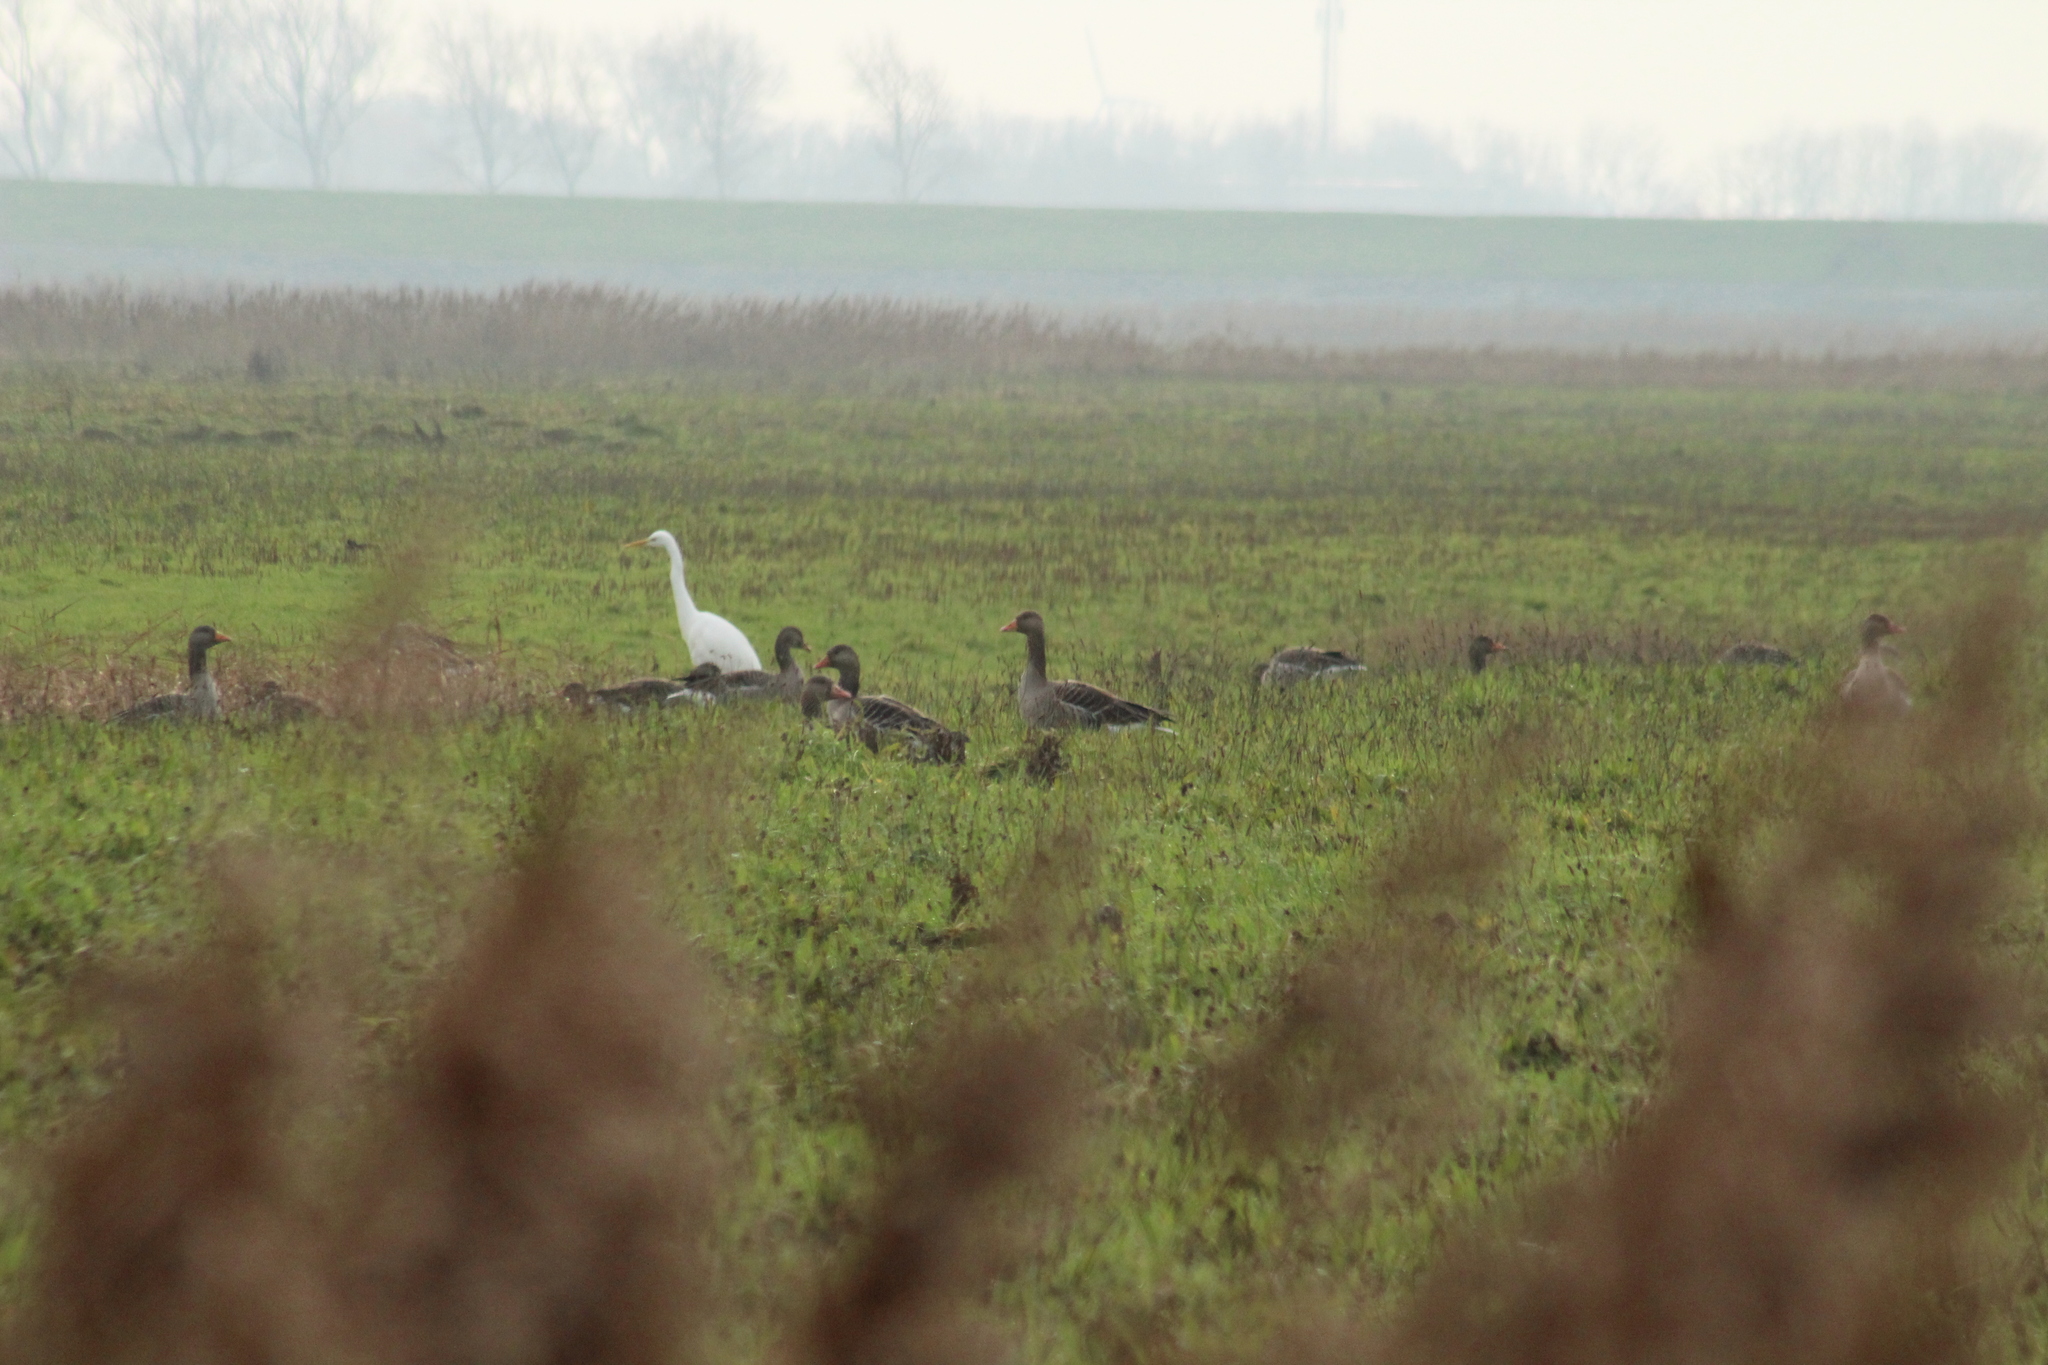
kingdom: Animalia
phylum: Chordata
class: Aves
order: Anseriformes
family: Anatidae
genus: Anser
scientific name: Anser anser
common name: Greylag goose
